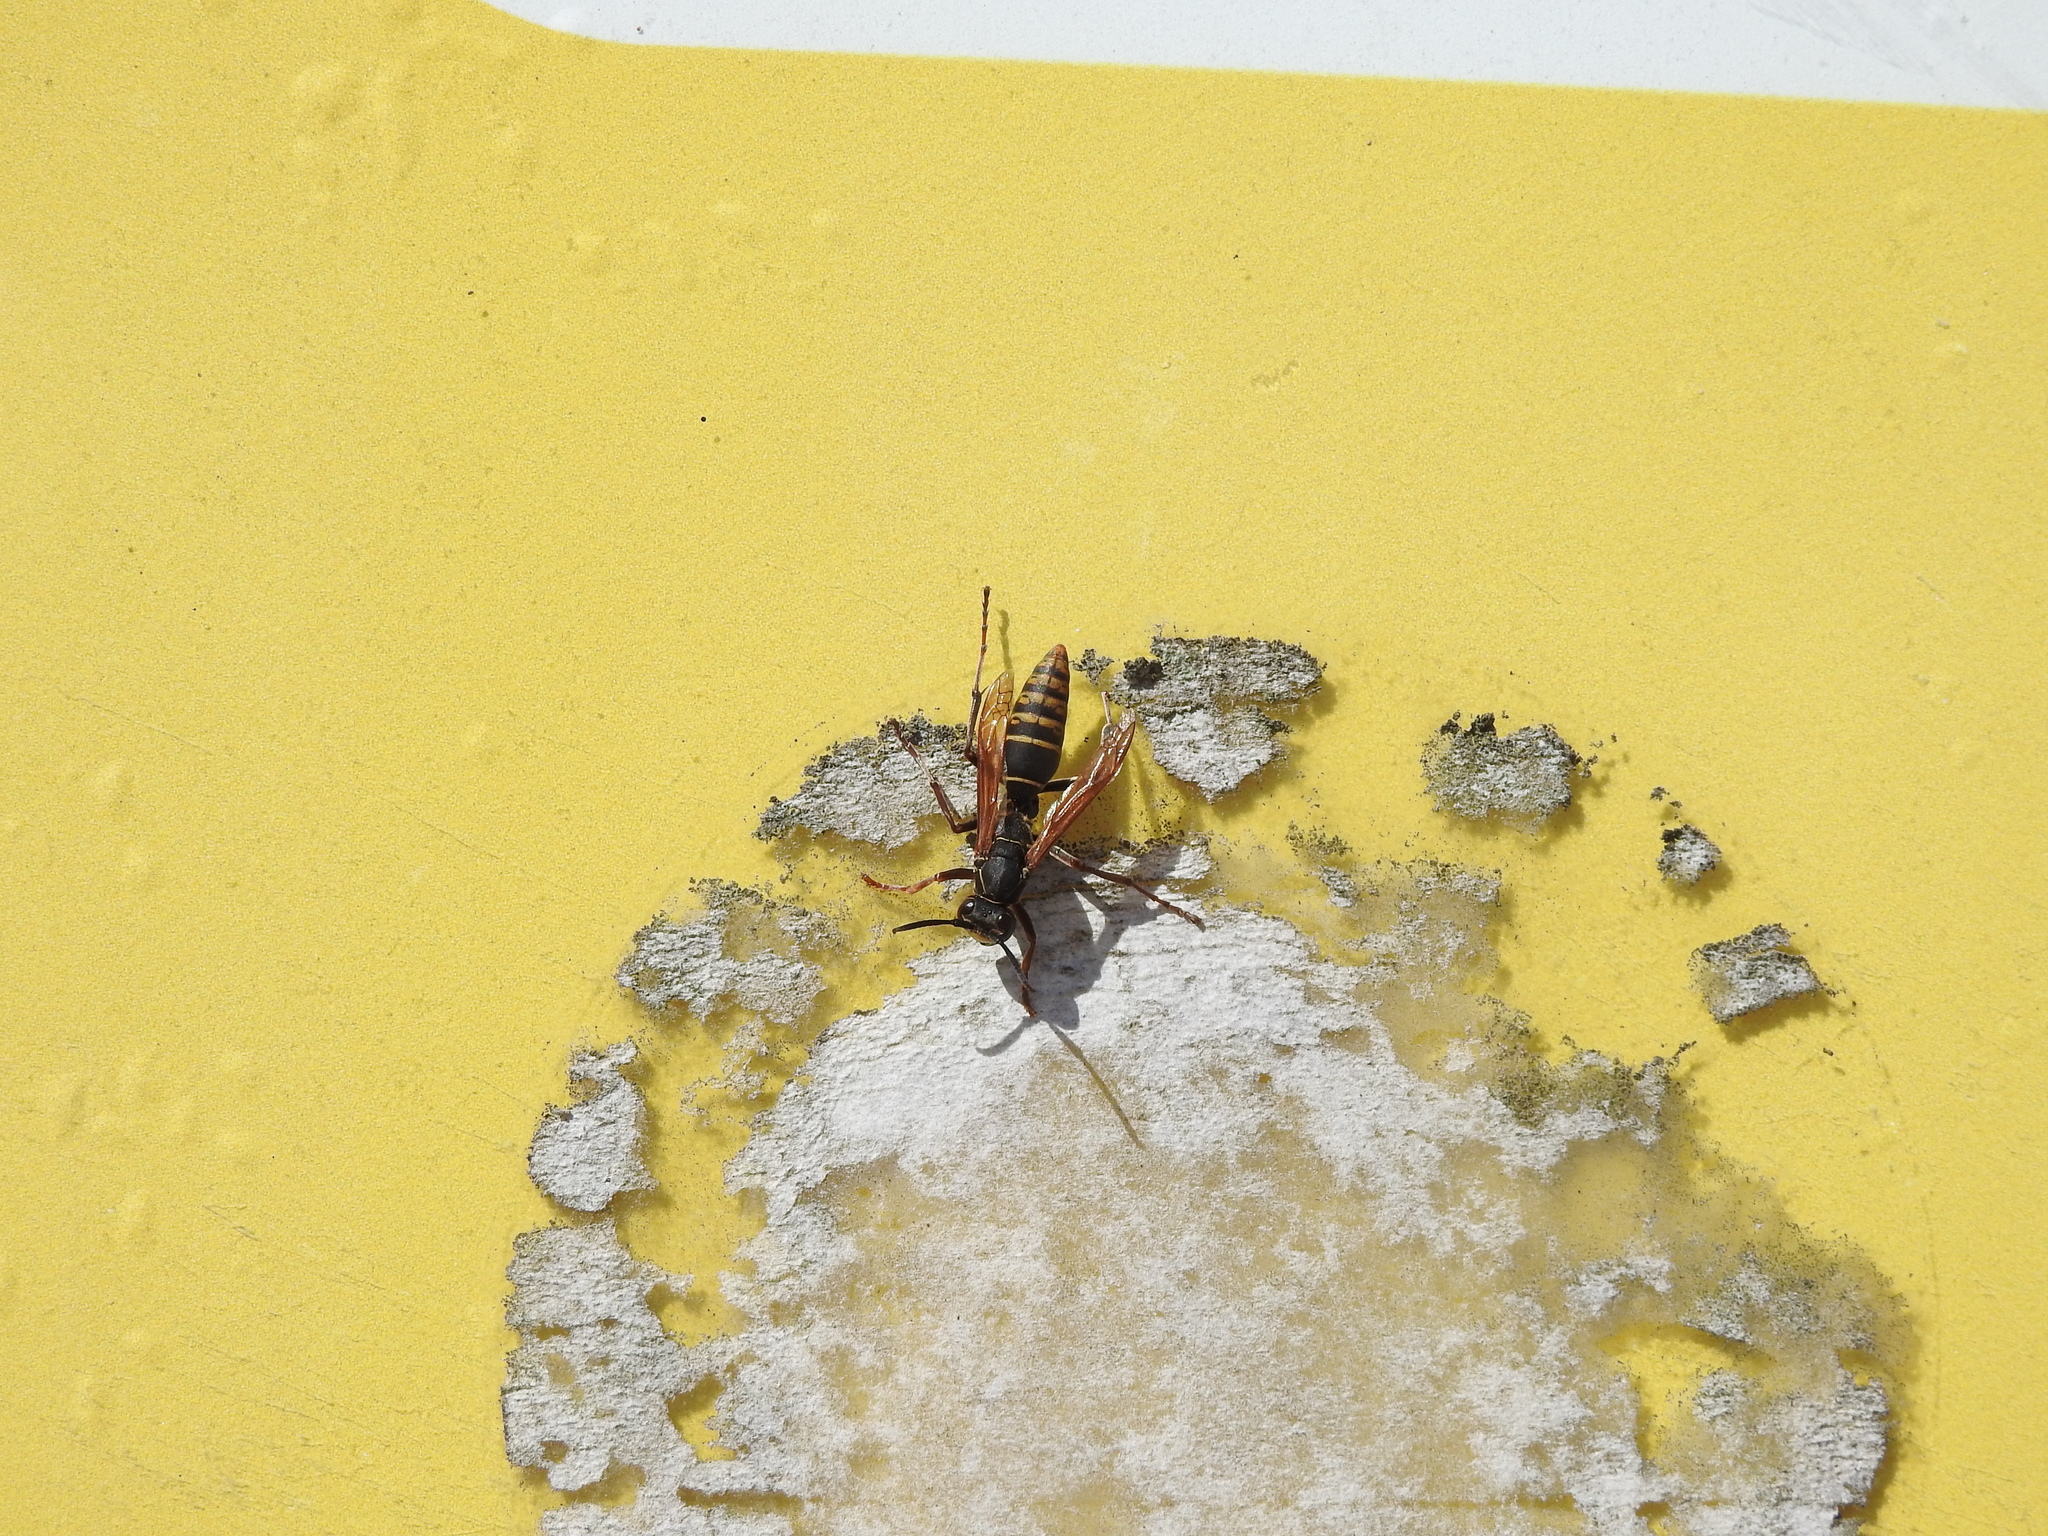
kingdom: Animalia
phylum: Arthropoda
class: Insecta
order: Hymenoptera
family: Eumenidae
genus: Polistes
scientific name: Polistes cinerascens
